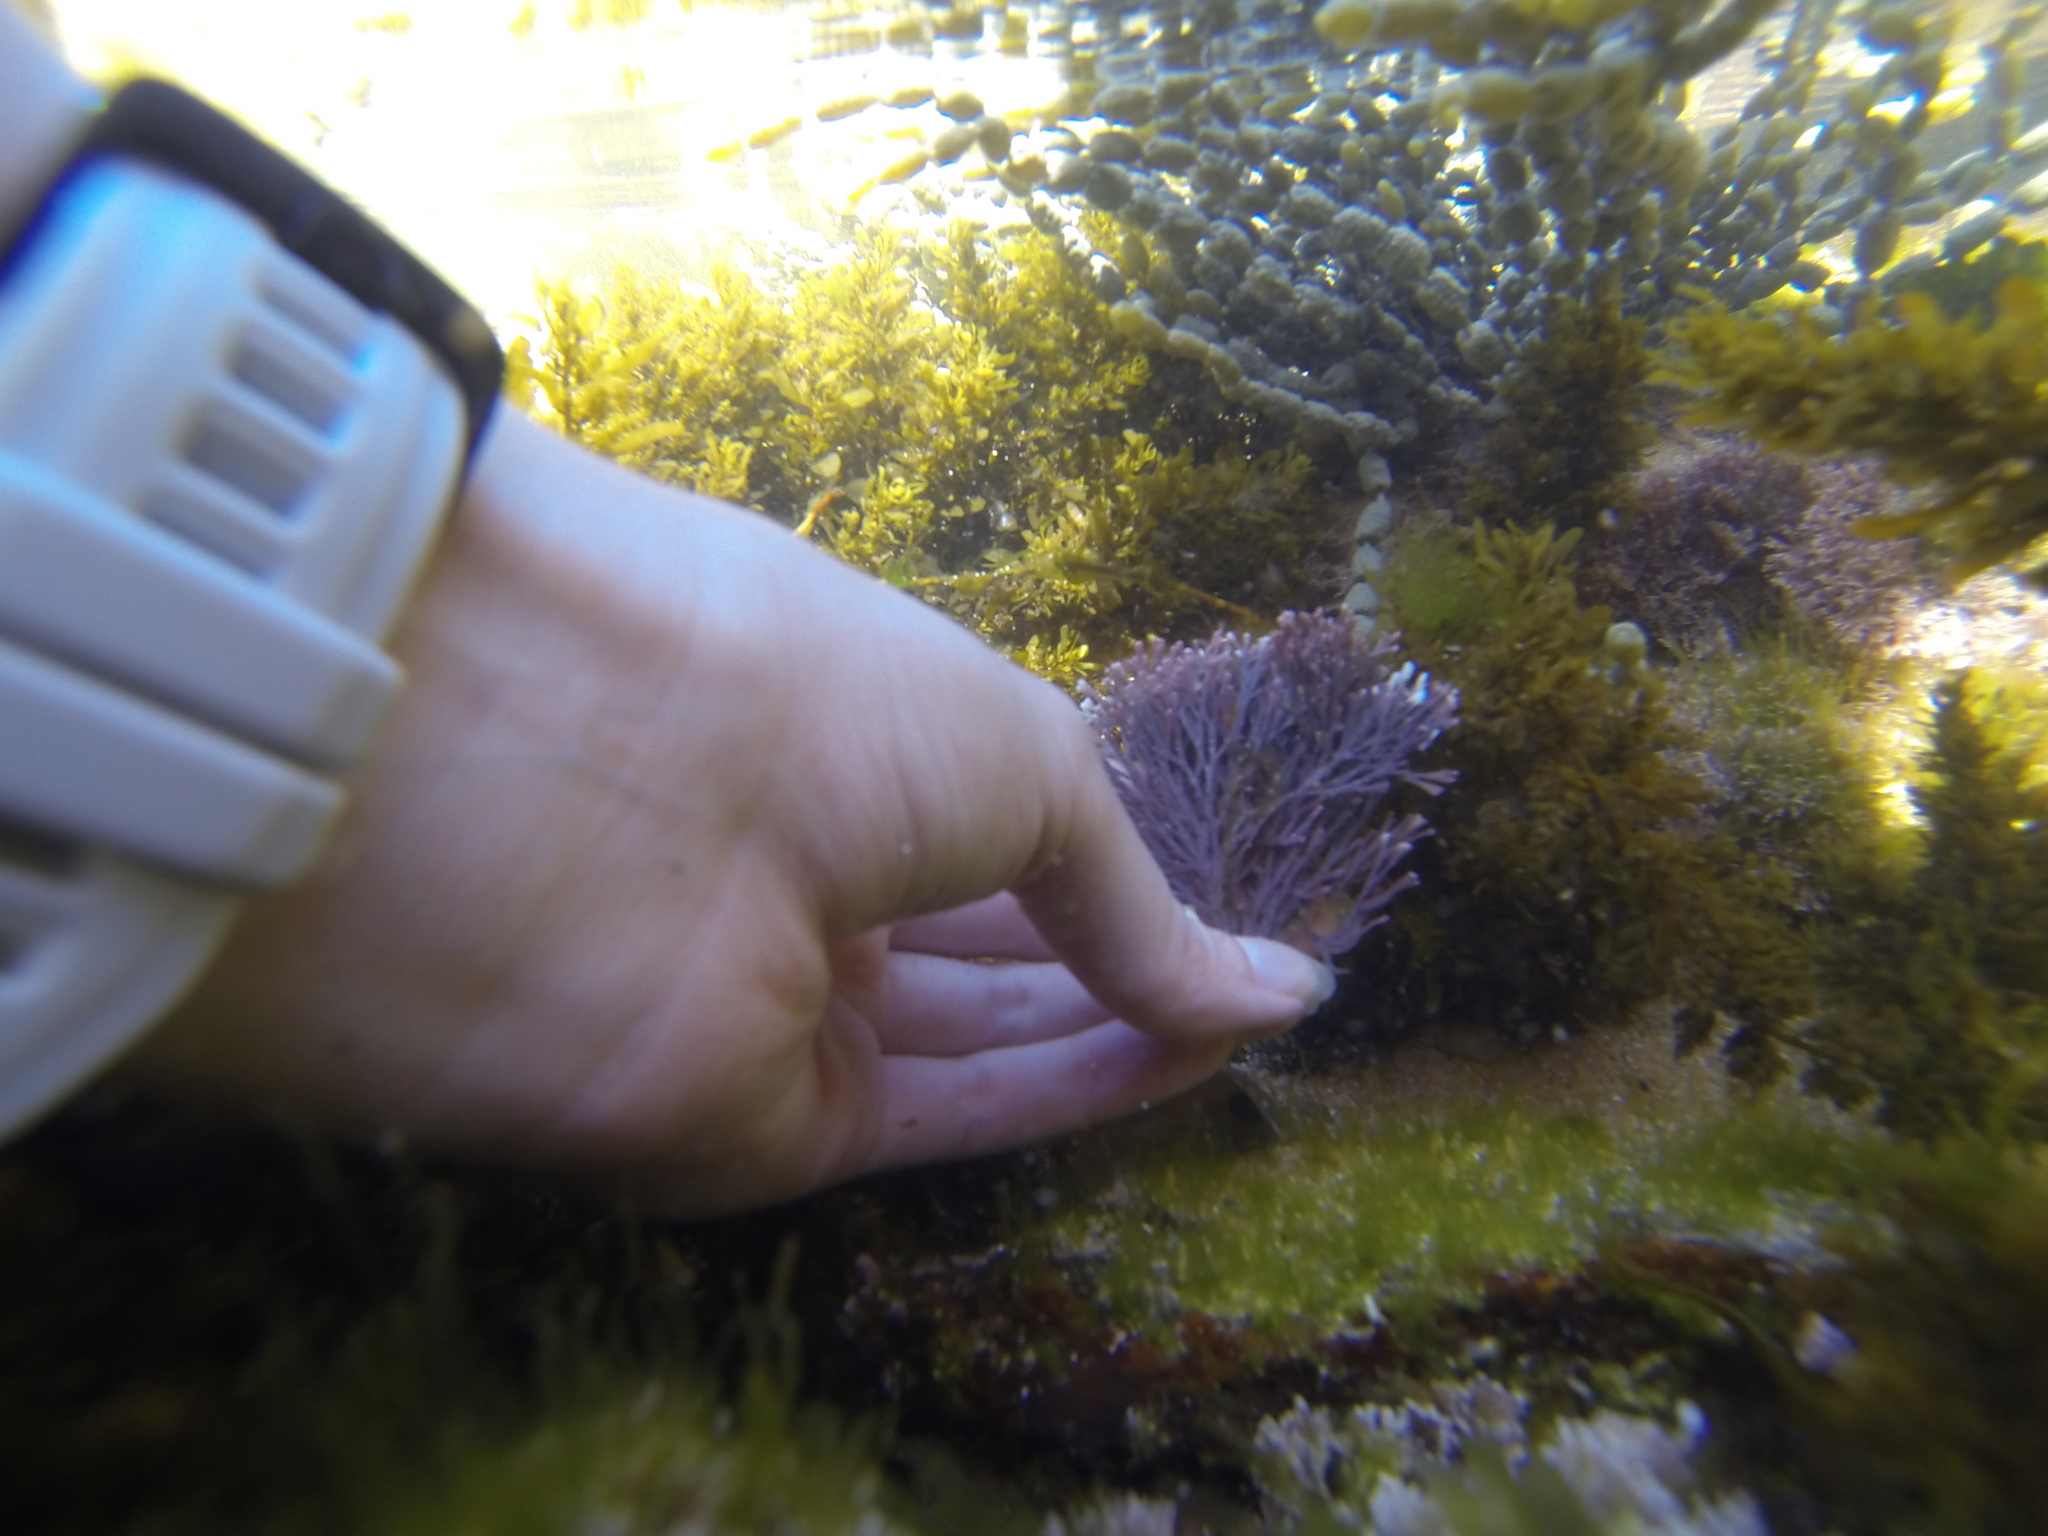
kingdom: Chromista
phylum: Ochrophyta
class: Phaeophyceae
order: Fucales
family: Hormosiraceae
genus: Hormosira
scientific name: Hormosira banksii
